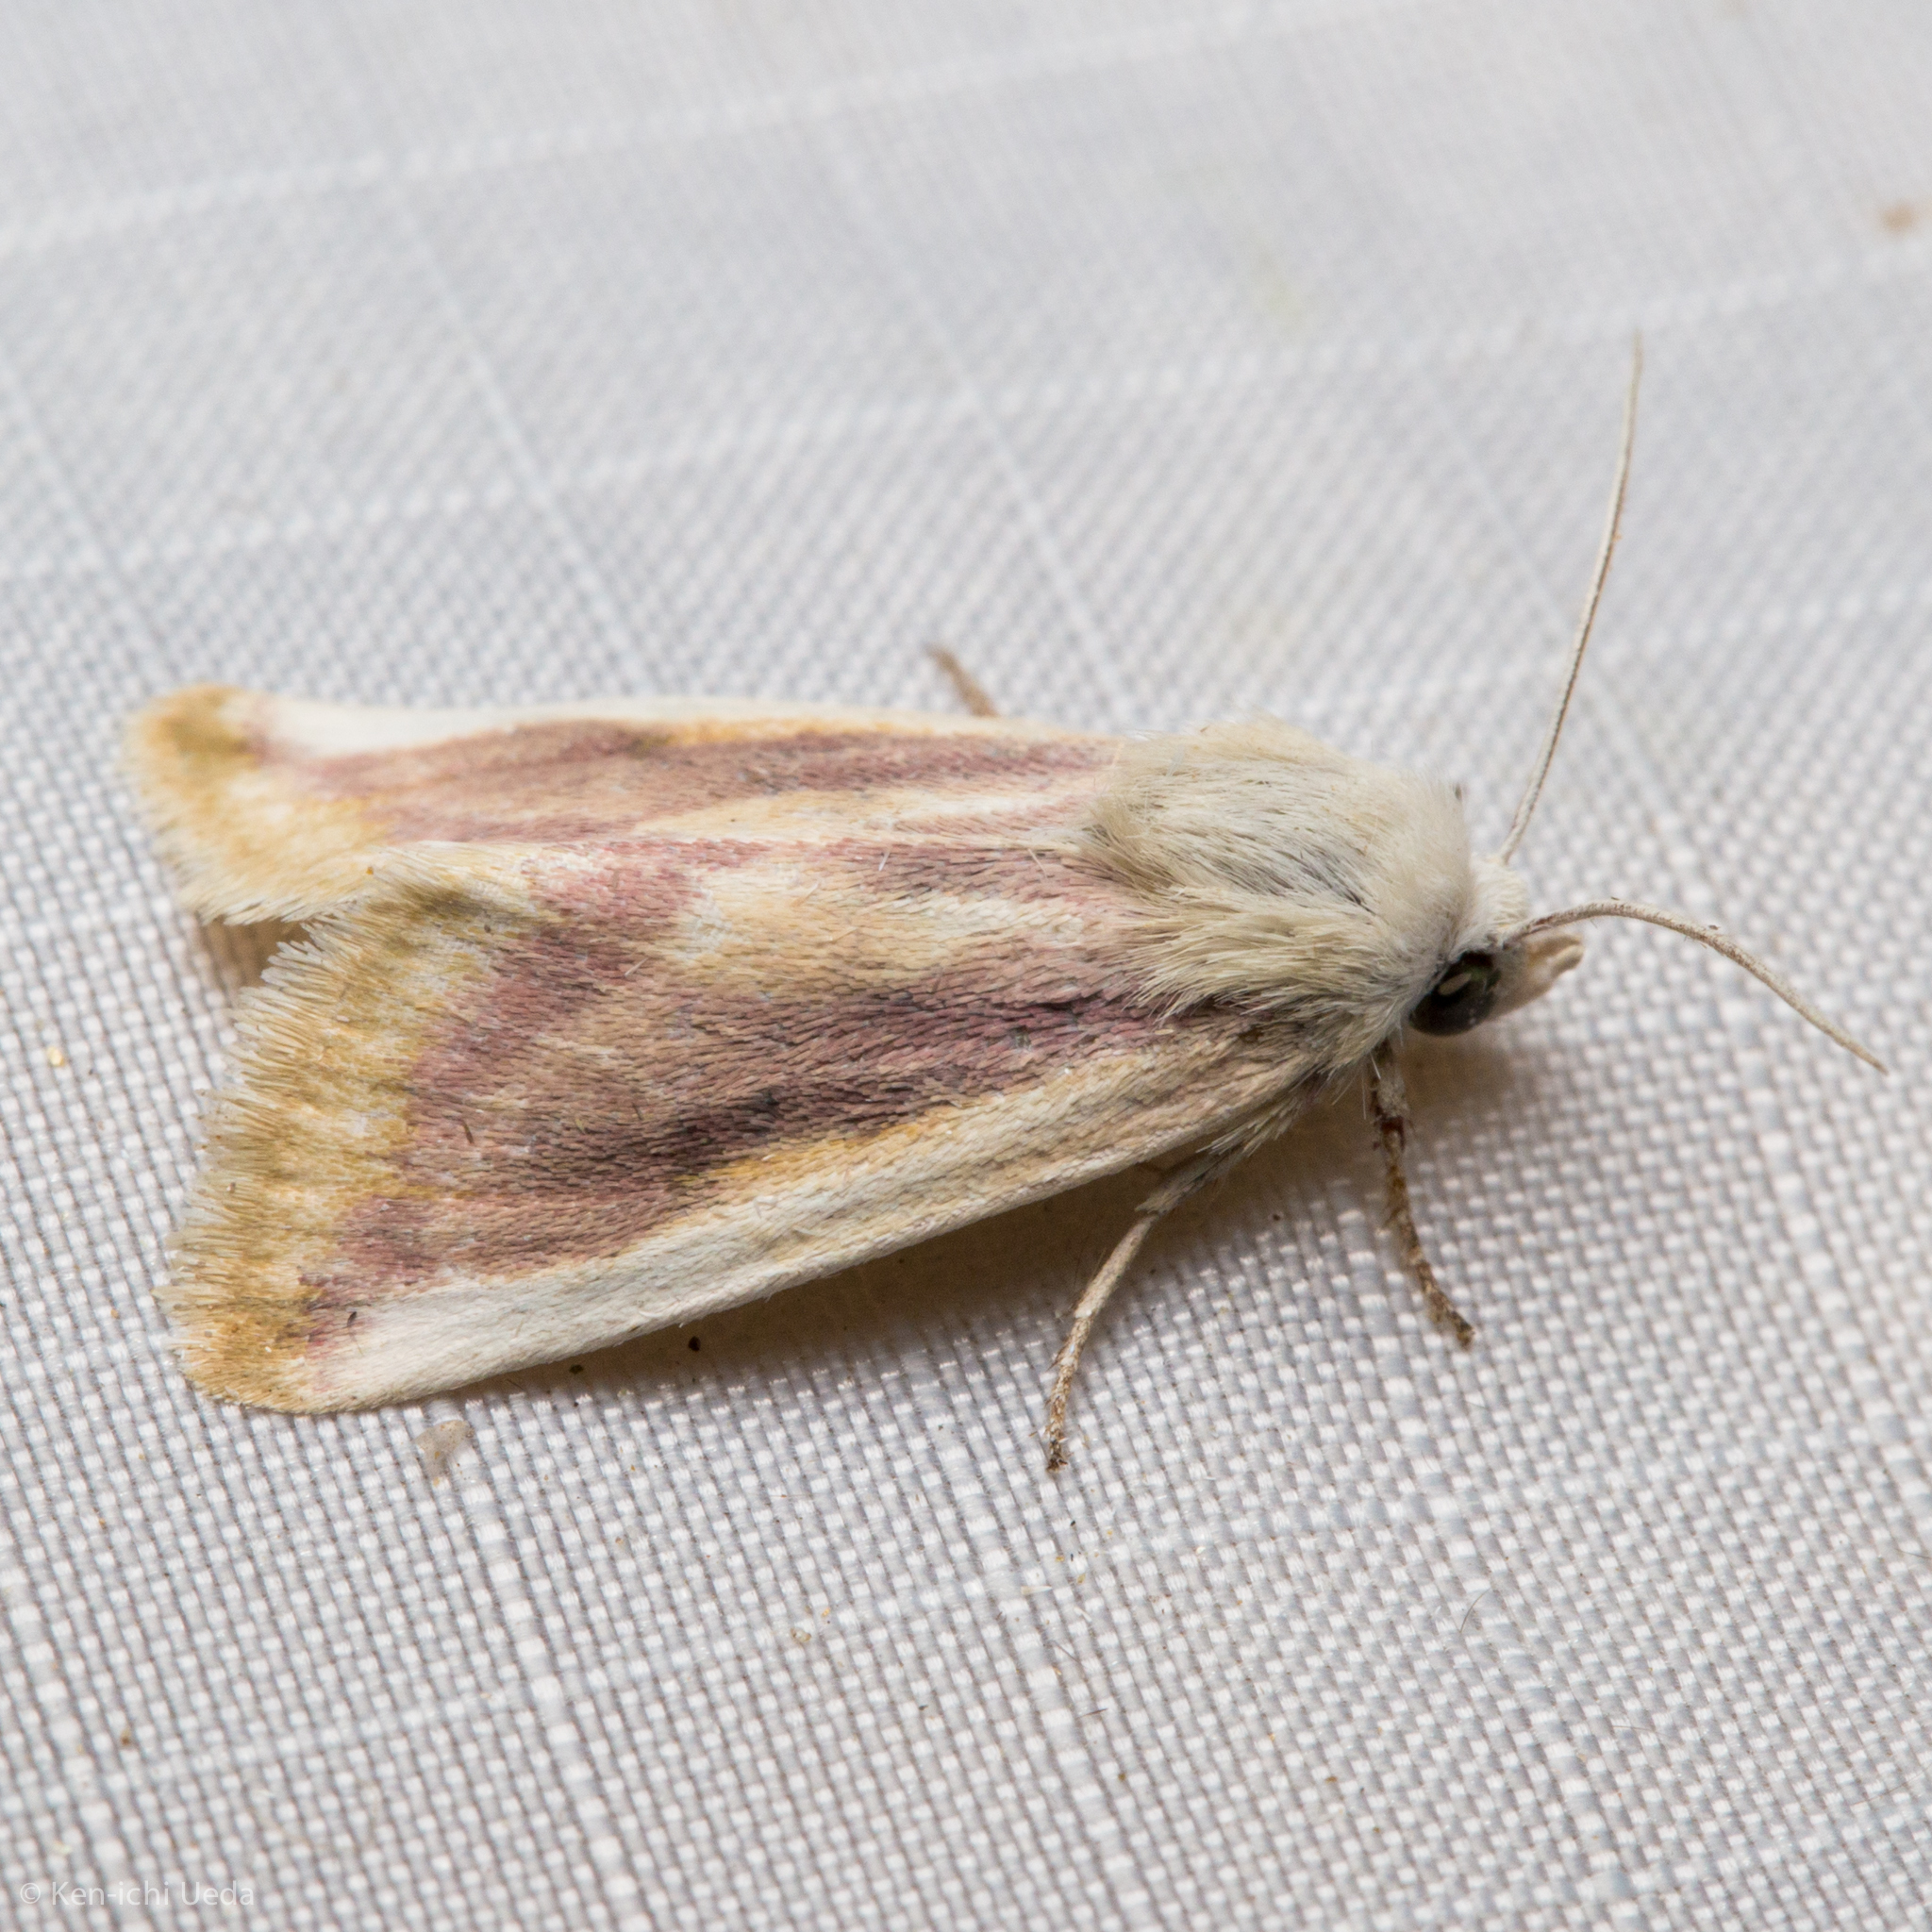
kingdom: Animalia
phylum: Arthropoda
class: Insecta
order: Lepidoptera
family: Noctuidae
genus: Schinia
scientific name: Schinia niveicosta
